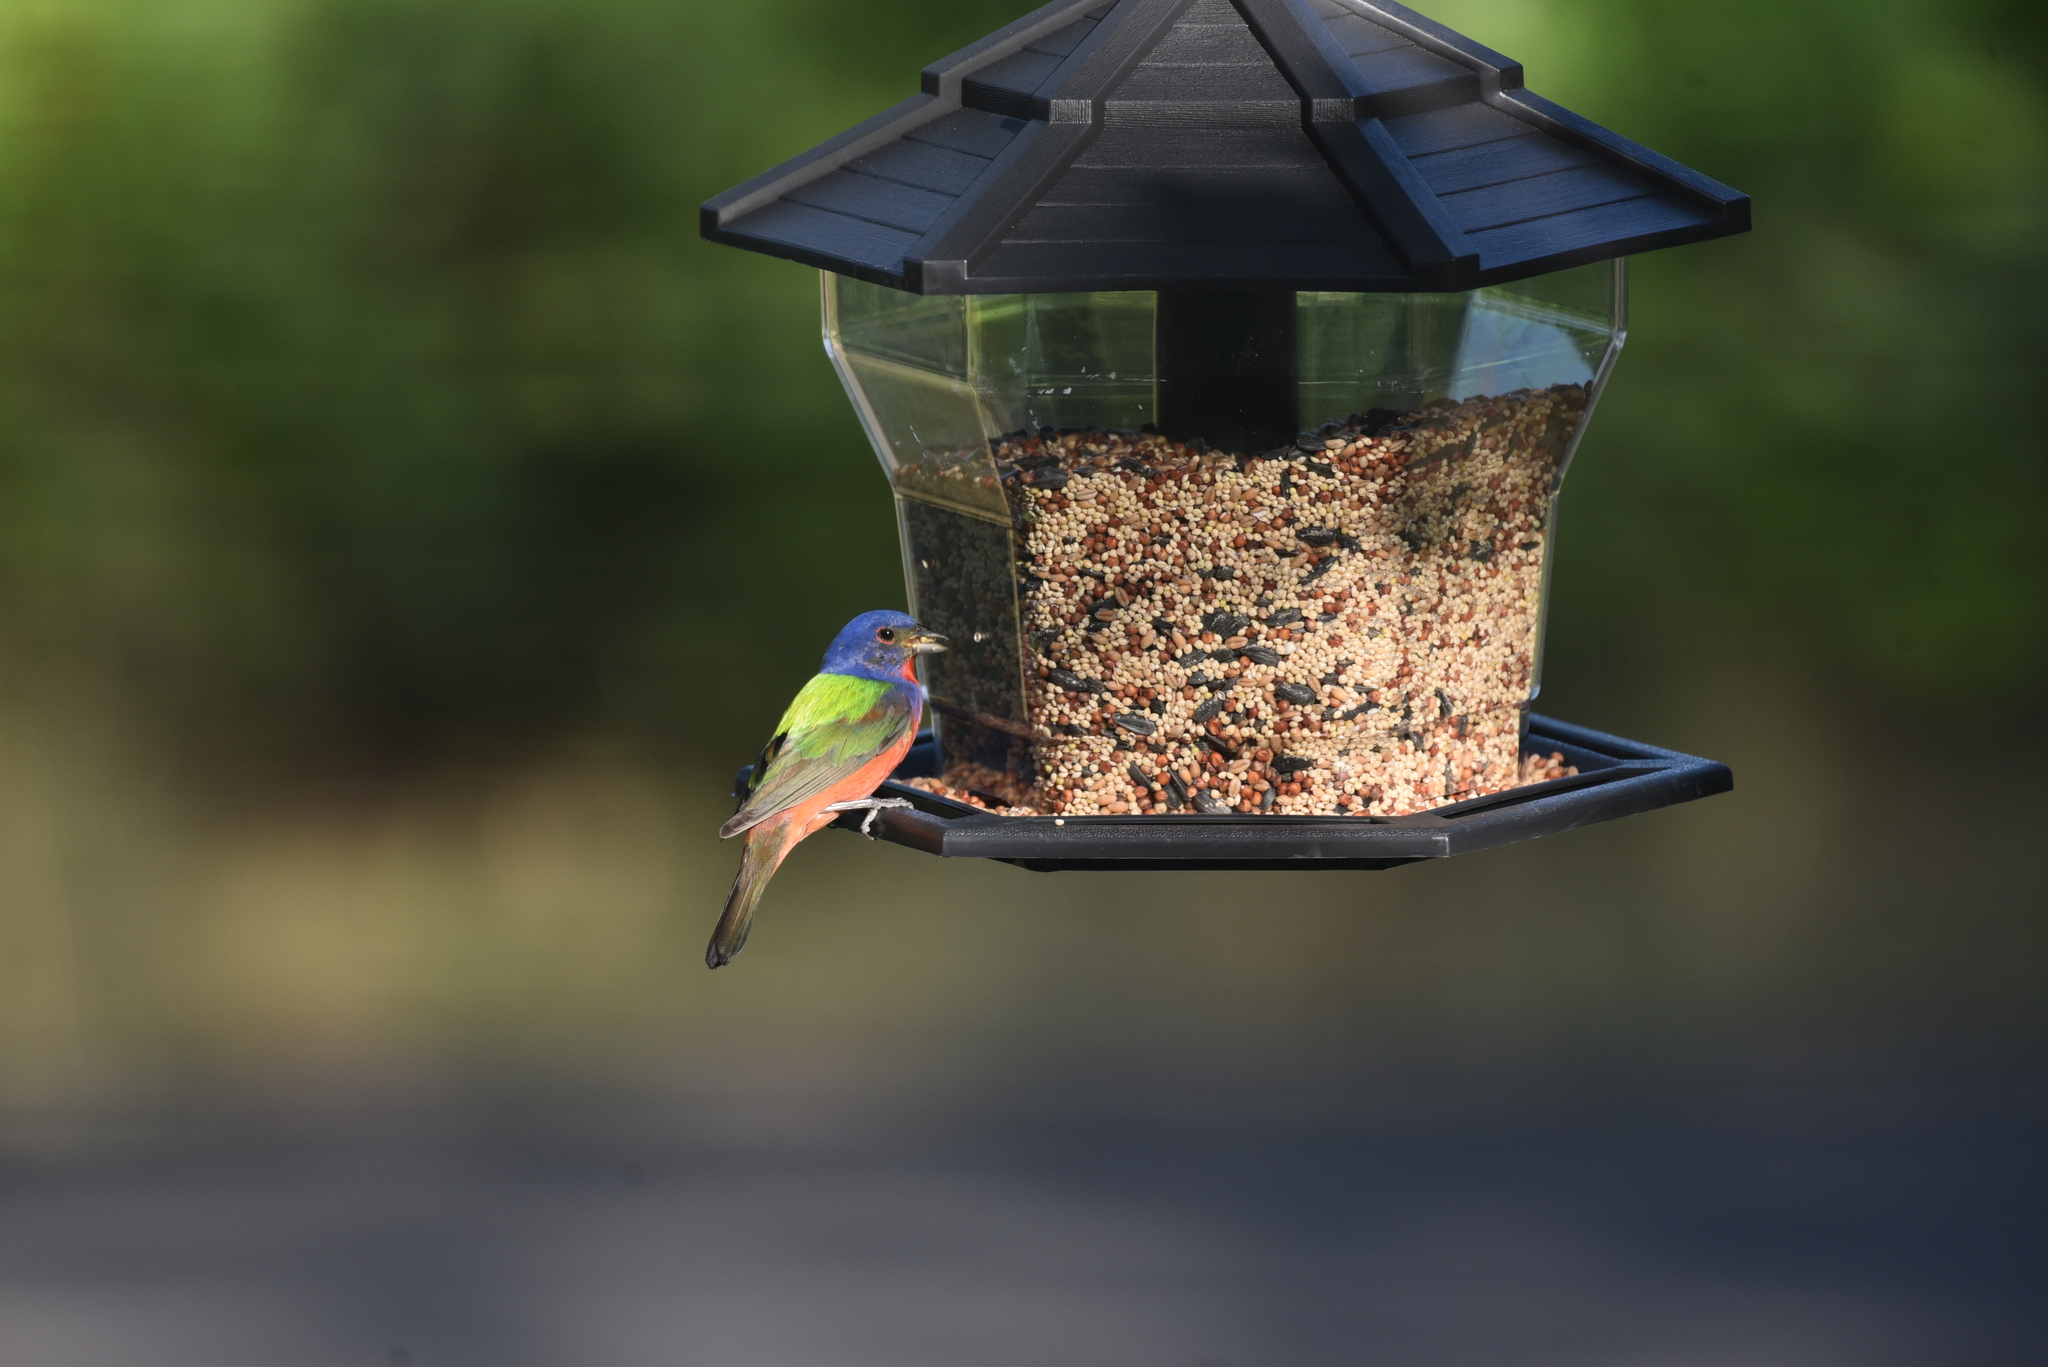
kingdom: Animalia
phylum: Chordata
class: Aves
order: Passeriformes
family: Cardinalidae
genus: Passerina
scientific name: Passerina ciris
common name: Painted bunting
